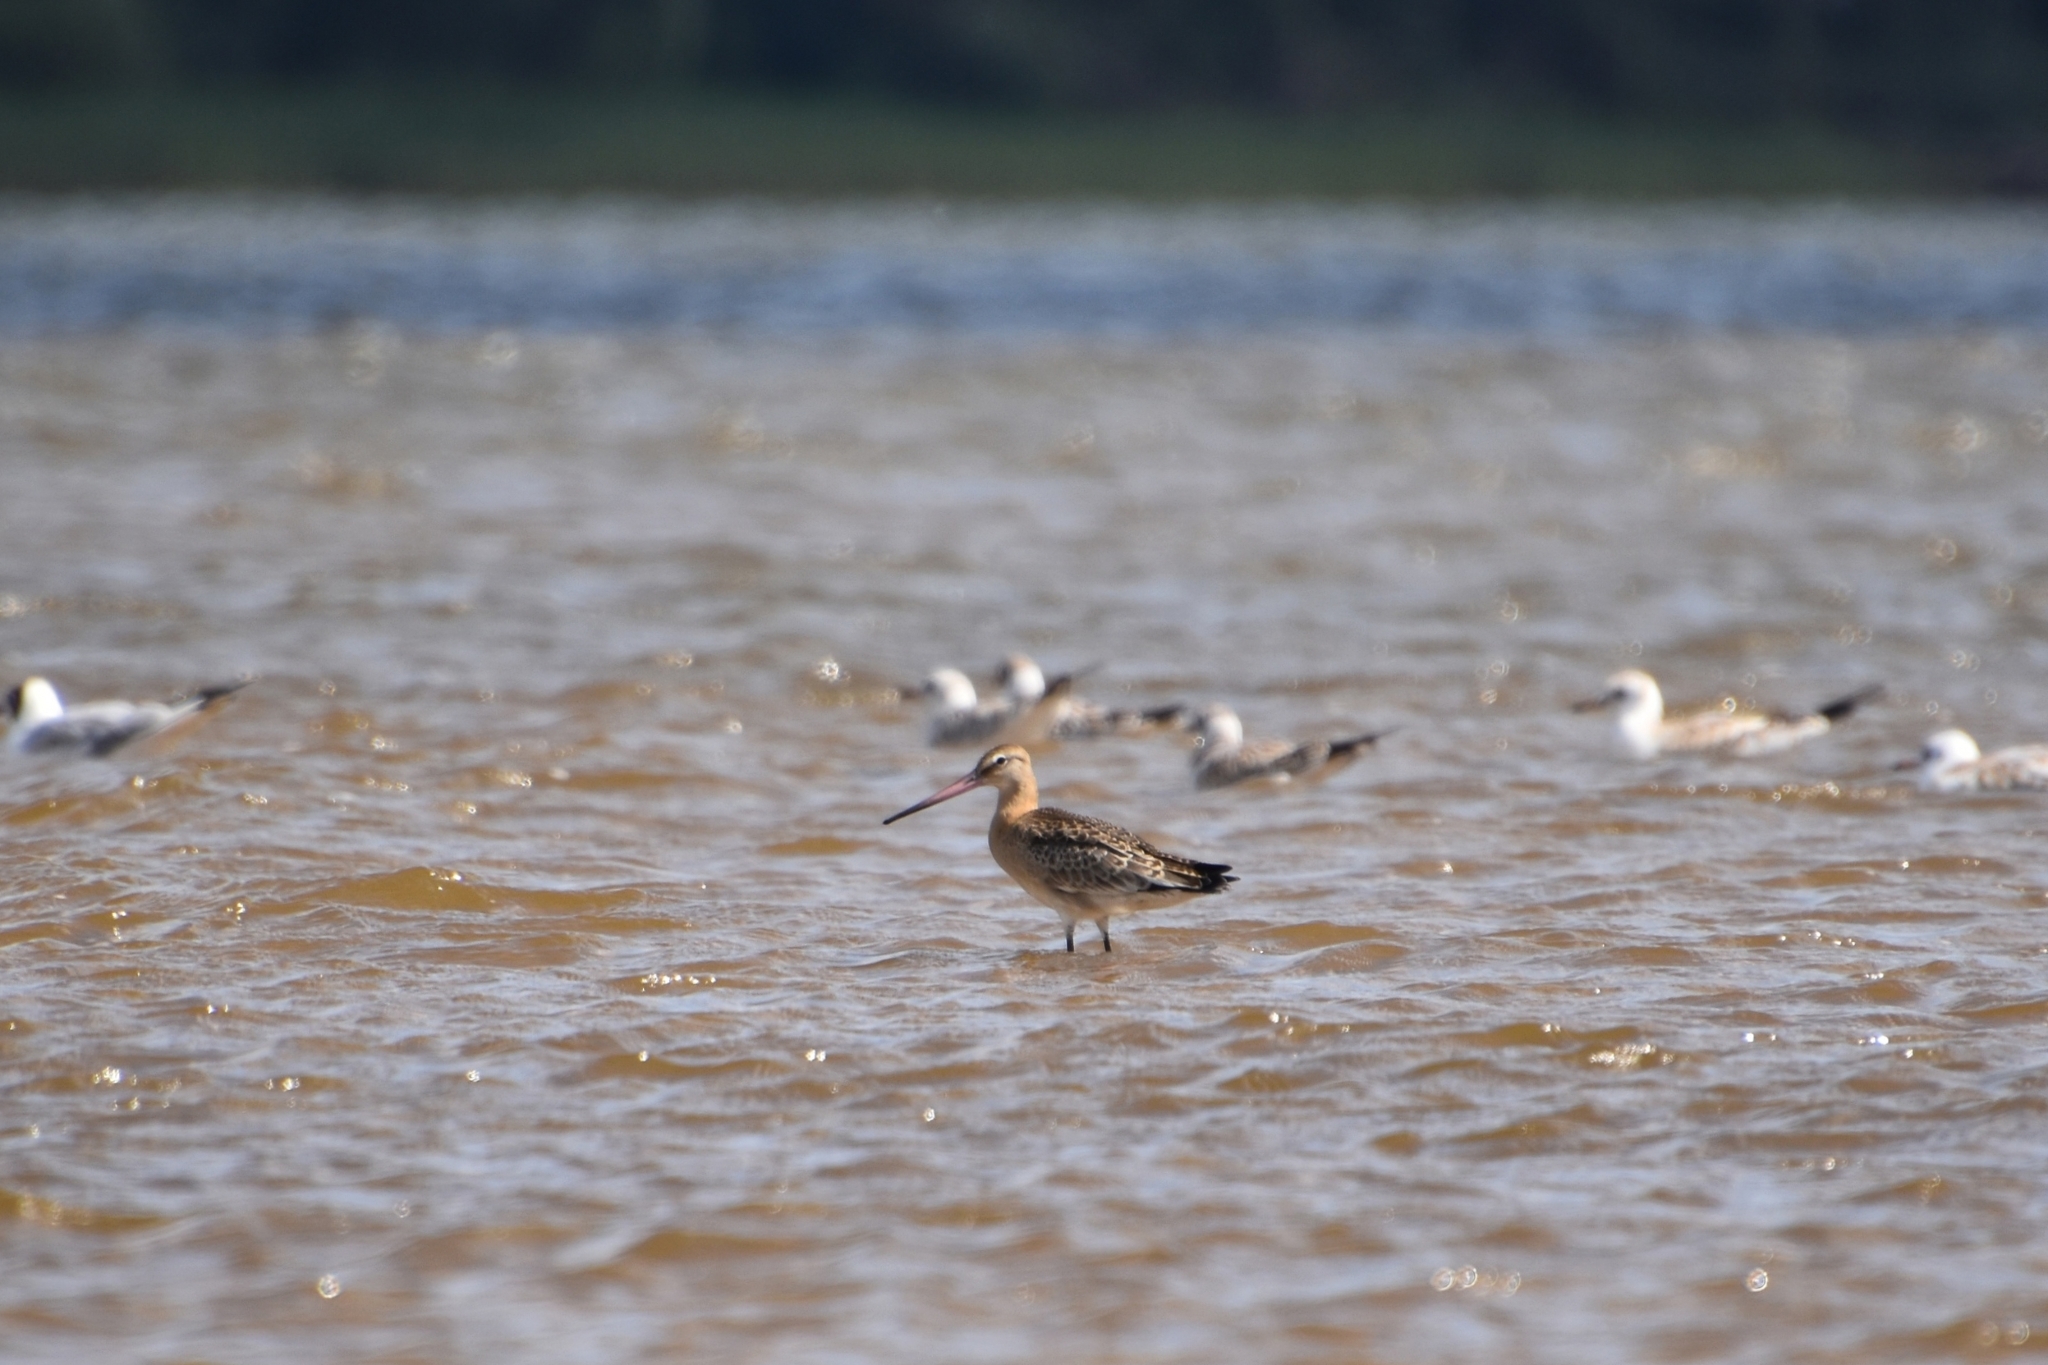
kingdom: Animalia
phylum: Chordata
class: Aves
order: Charadriiformes
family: Scolopacidae
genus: Limosa
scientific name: Limosa limosa
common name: Black-tailed godwit
